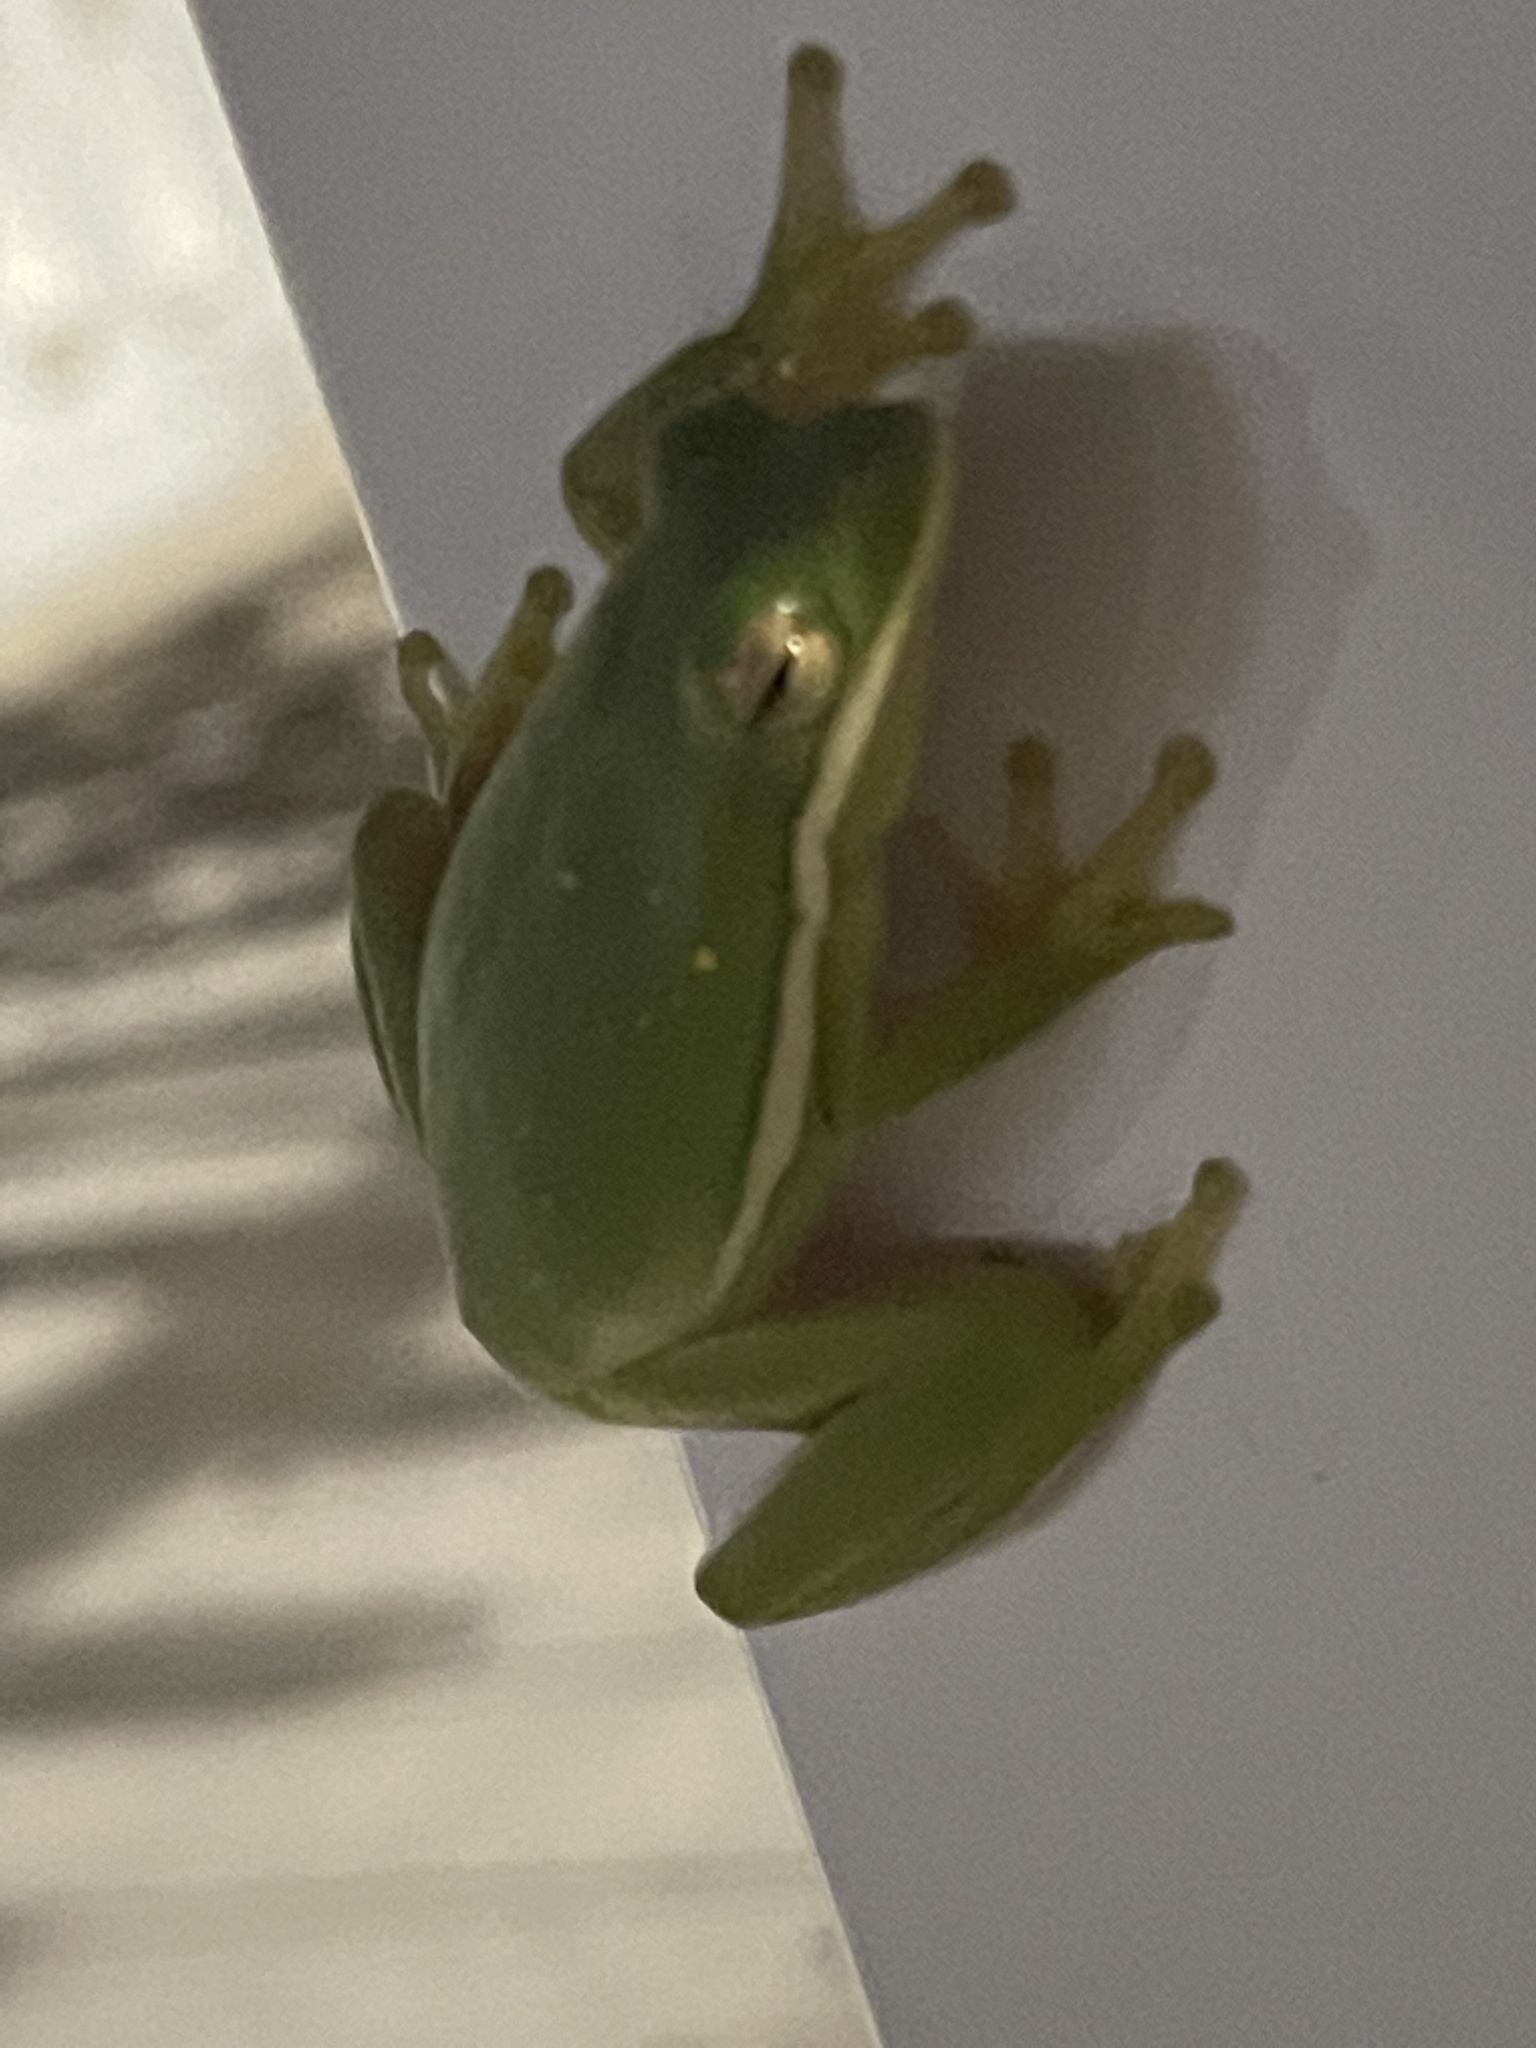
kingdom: Animalia
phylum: Chordata
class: Amphibia
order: Anura
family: Hylidae
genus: Dryophytes
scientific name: Dryophytes cinereus
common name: Green treefrog
